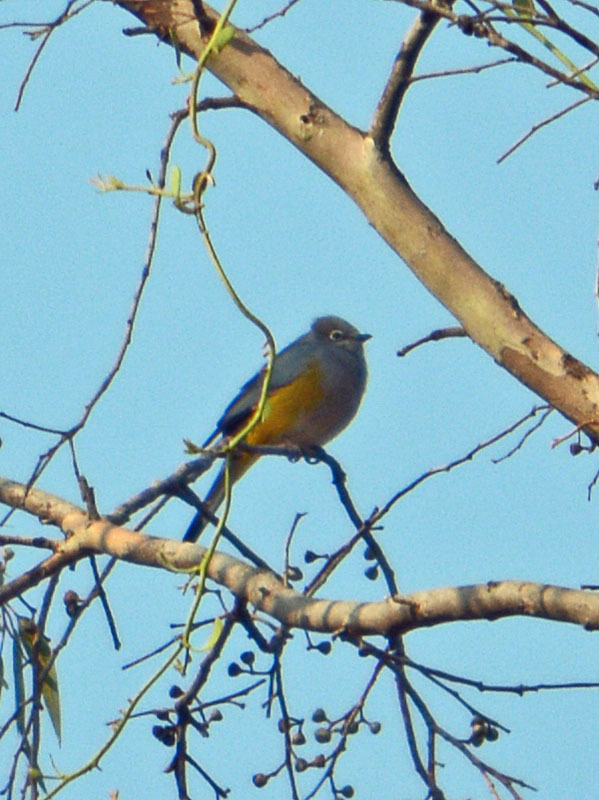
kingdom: Animalia
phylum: Chordata
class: Aves
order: Passeriformes
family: Ptilogonatidae
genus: Ptilogonys
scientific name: Ptilogonys cinereus
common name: Gray silky-flycatcher
